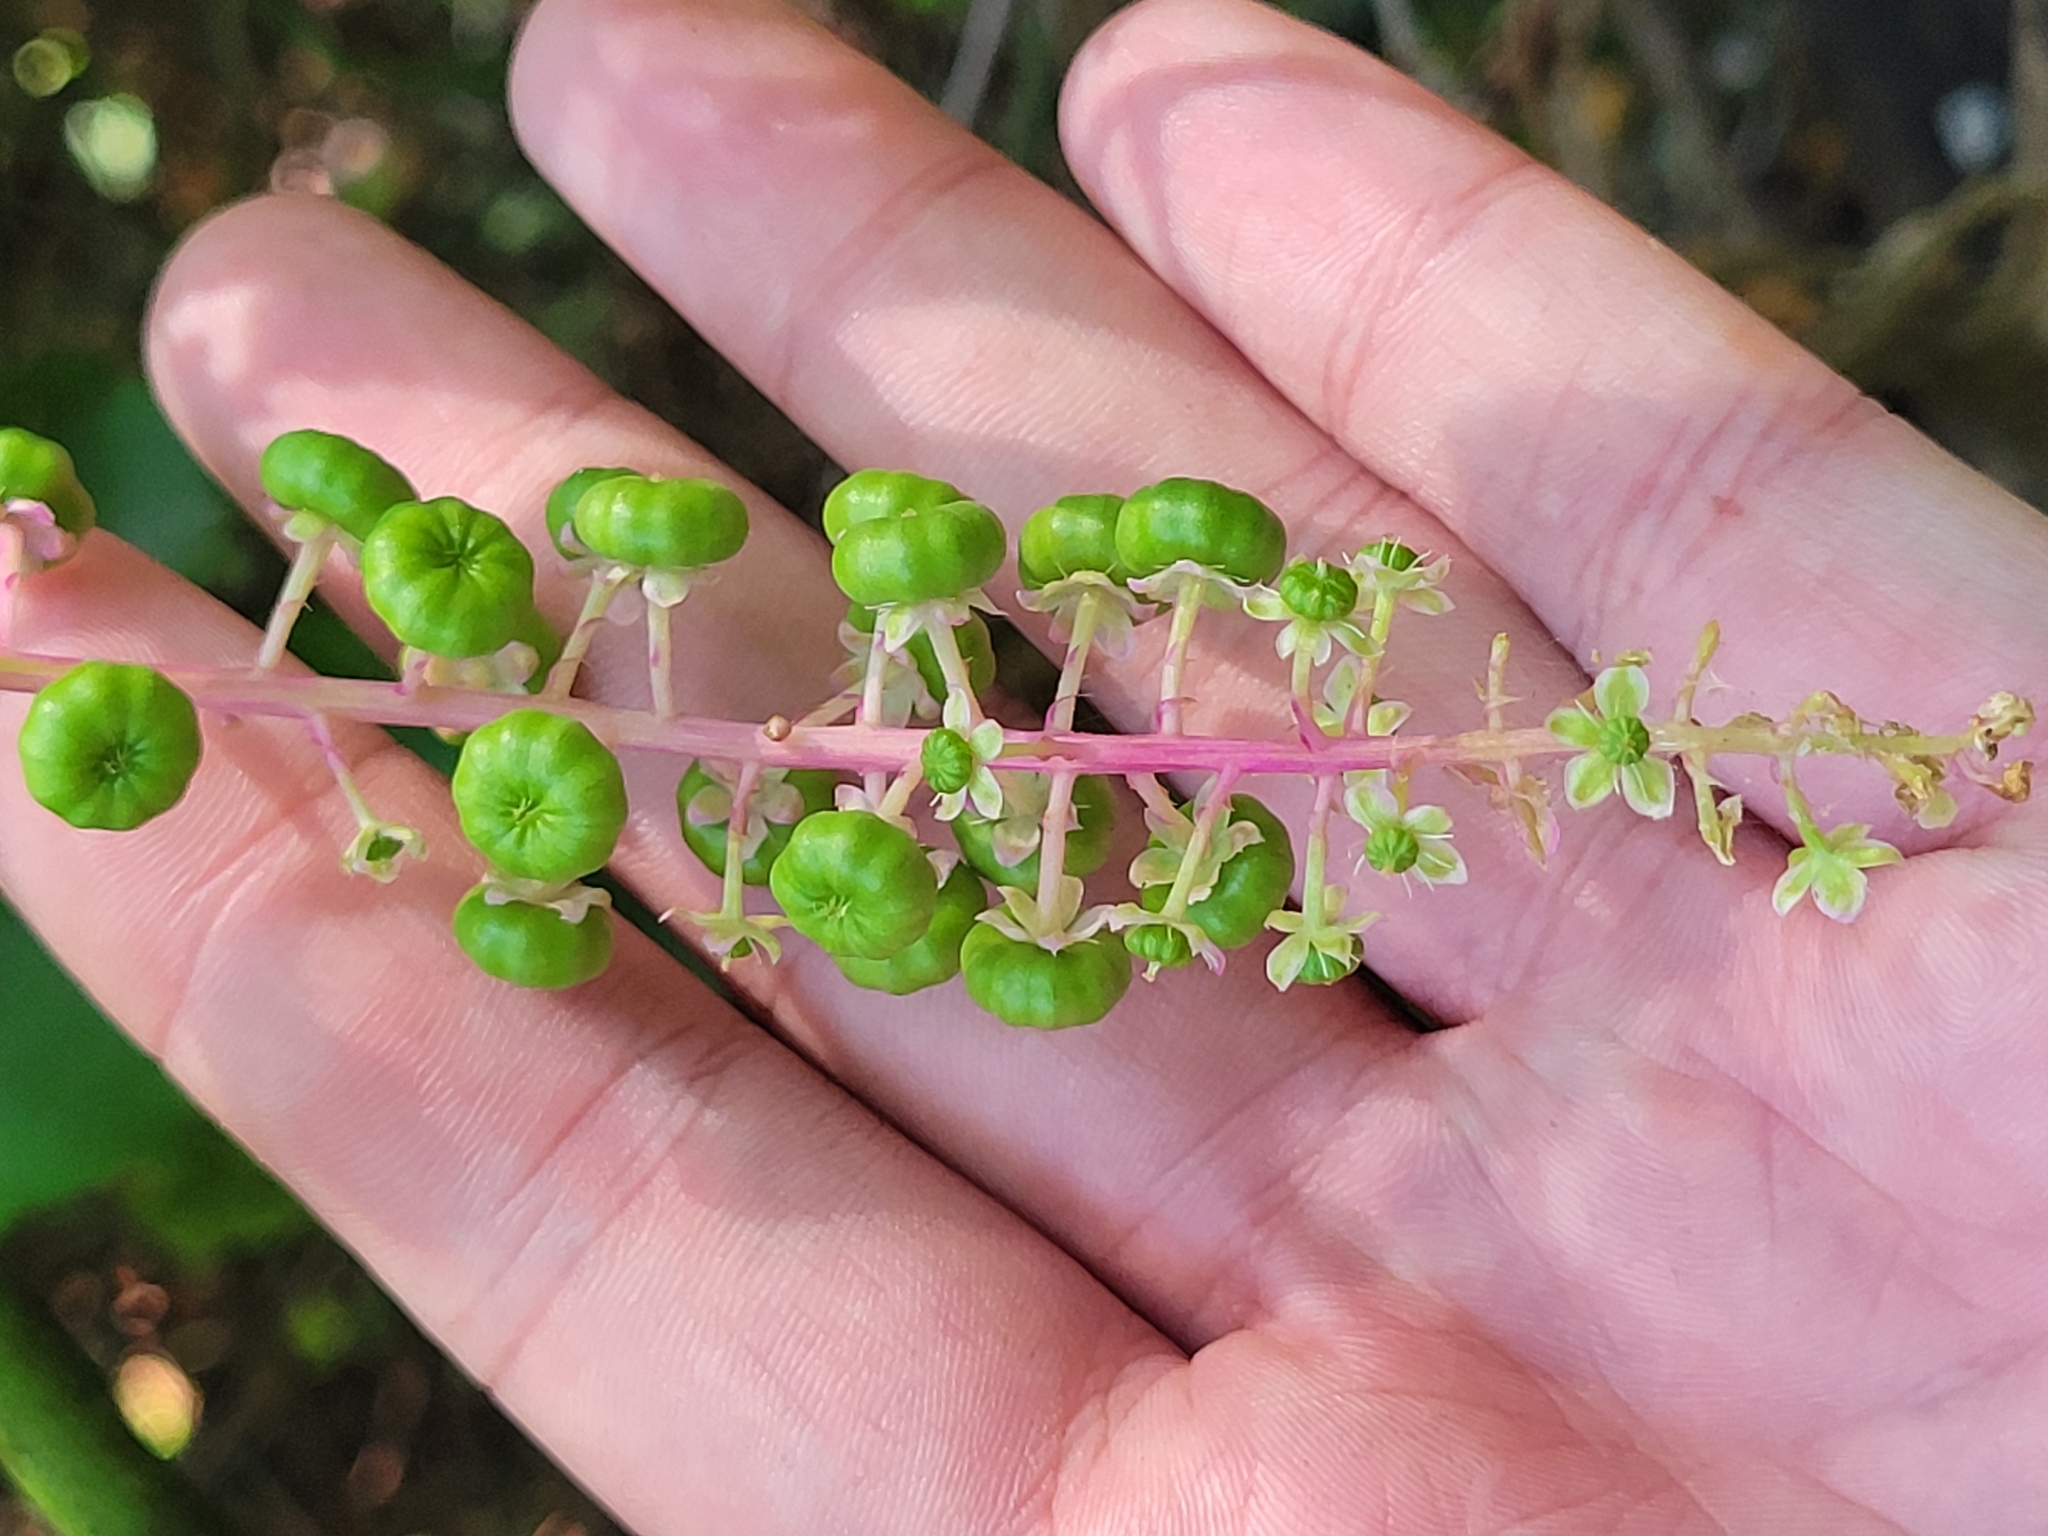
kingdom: Plantae
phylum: Tracheophyta
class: Magnoliopsida
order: Caryophyllales
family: Phytolaccaceae
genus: Phytolacca
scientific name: Phytolacca americana
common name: American pokeweed
